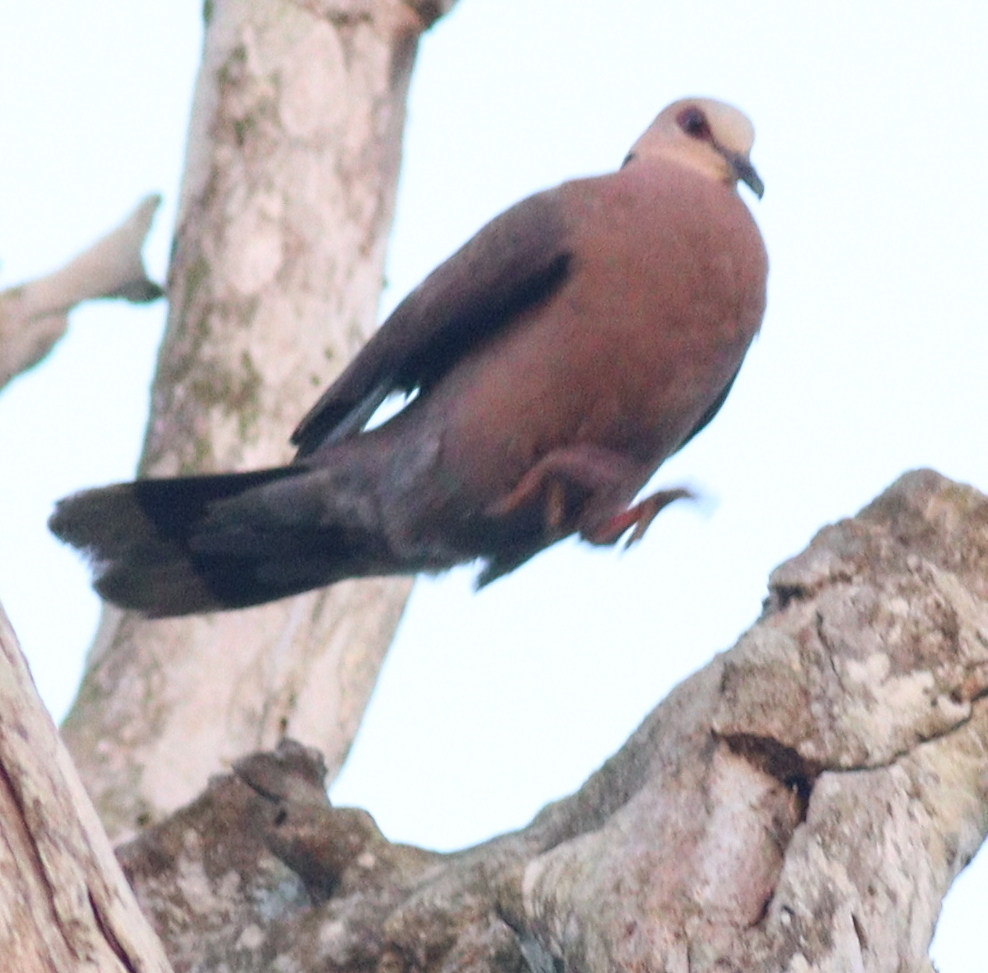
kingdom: Animalia
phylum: Chordata
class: Aves
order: Columbiformes
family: Columbidae
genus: Streptopelia
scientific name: Streptopelia semitorquata
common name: Red-eyed dove
